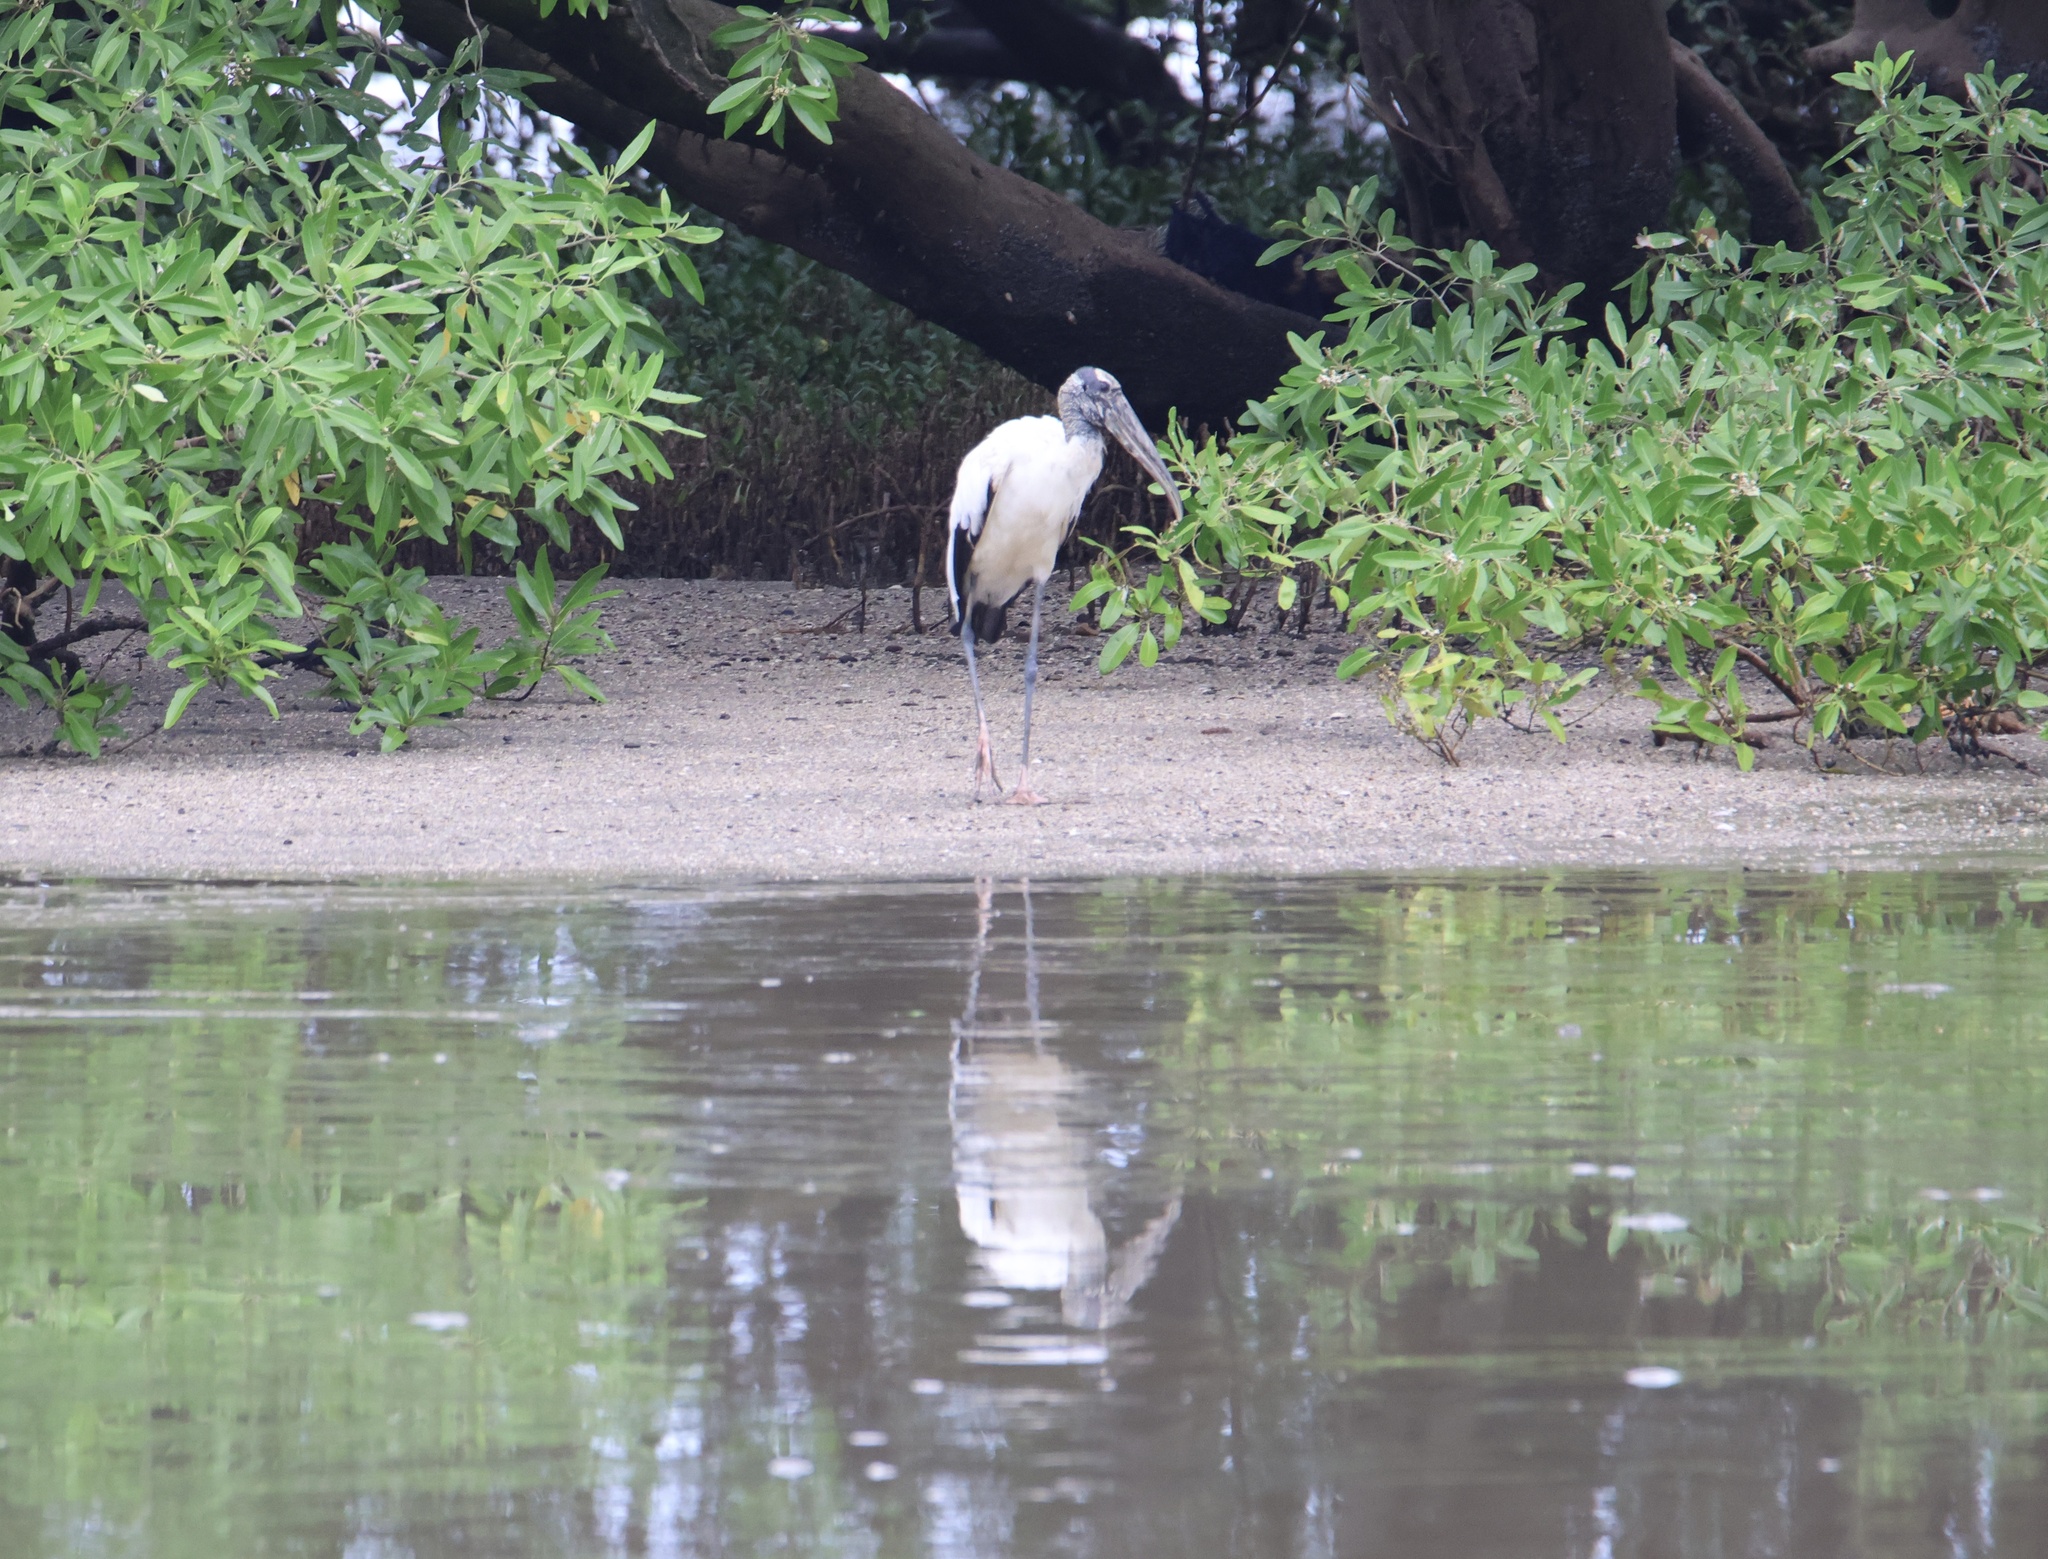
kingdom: Animalia
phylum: Chordata
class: Aves
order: Ciconiiformes
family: Ciconiidae
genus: Mycteria
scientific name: Mycteria americana
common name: Wood stork
